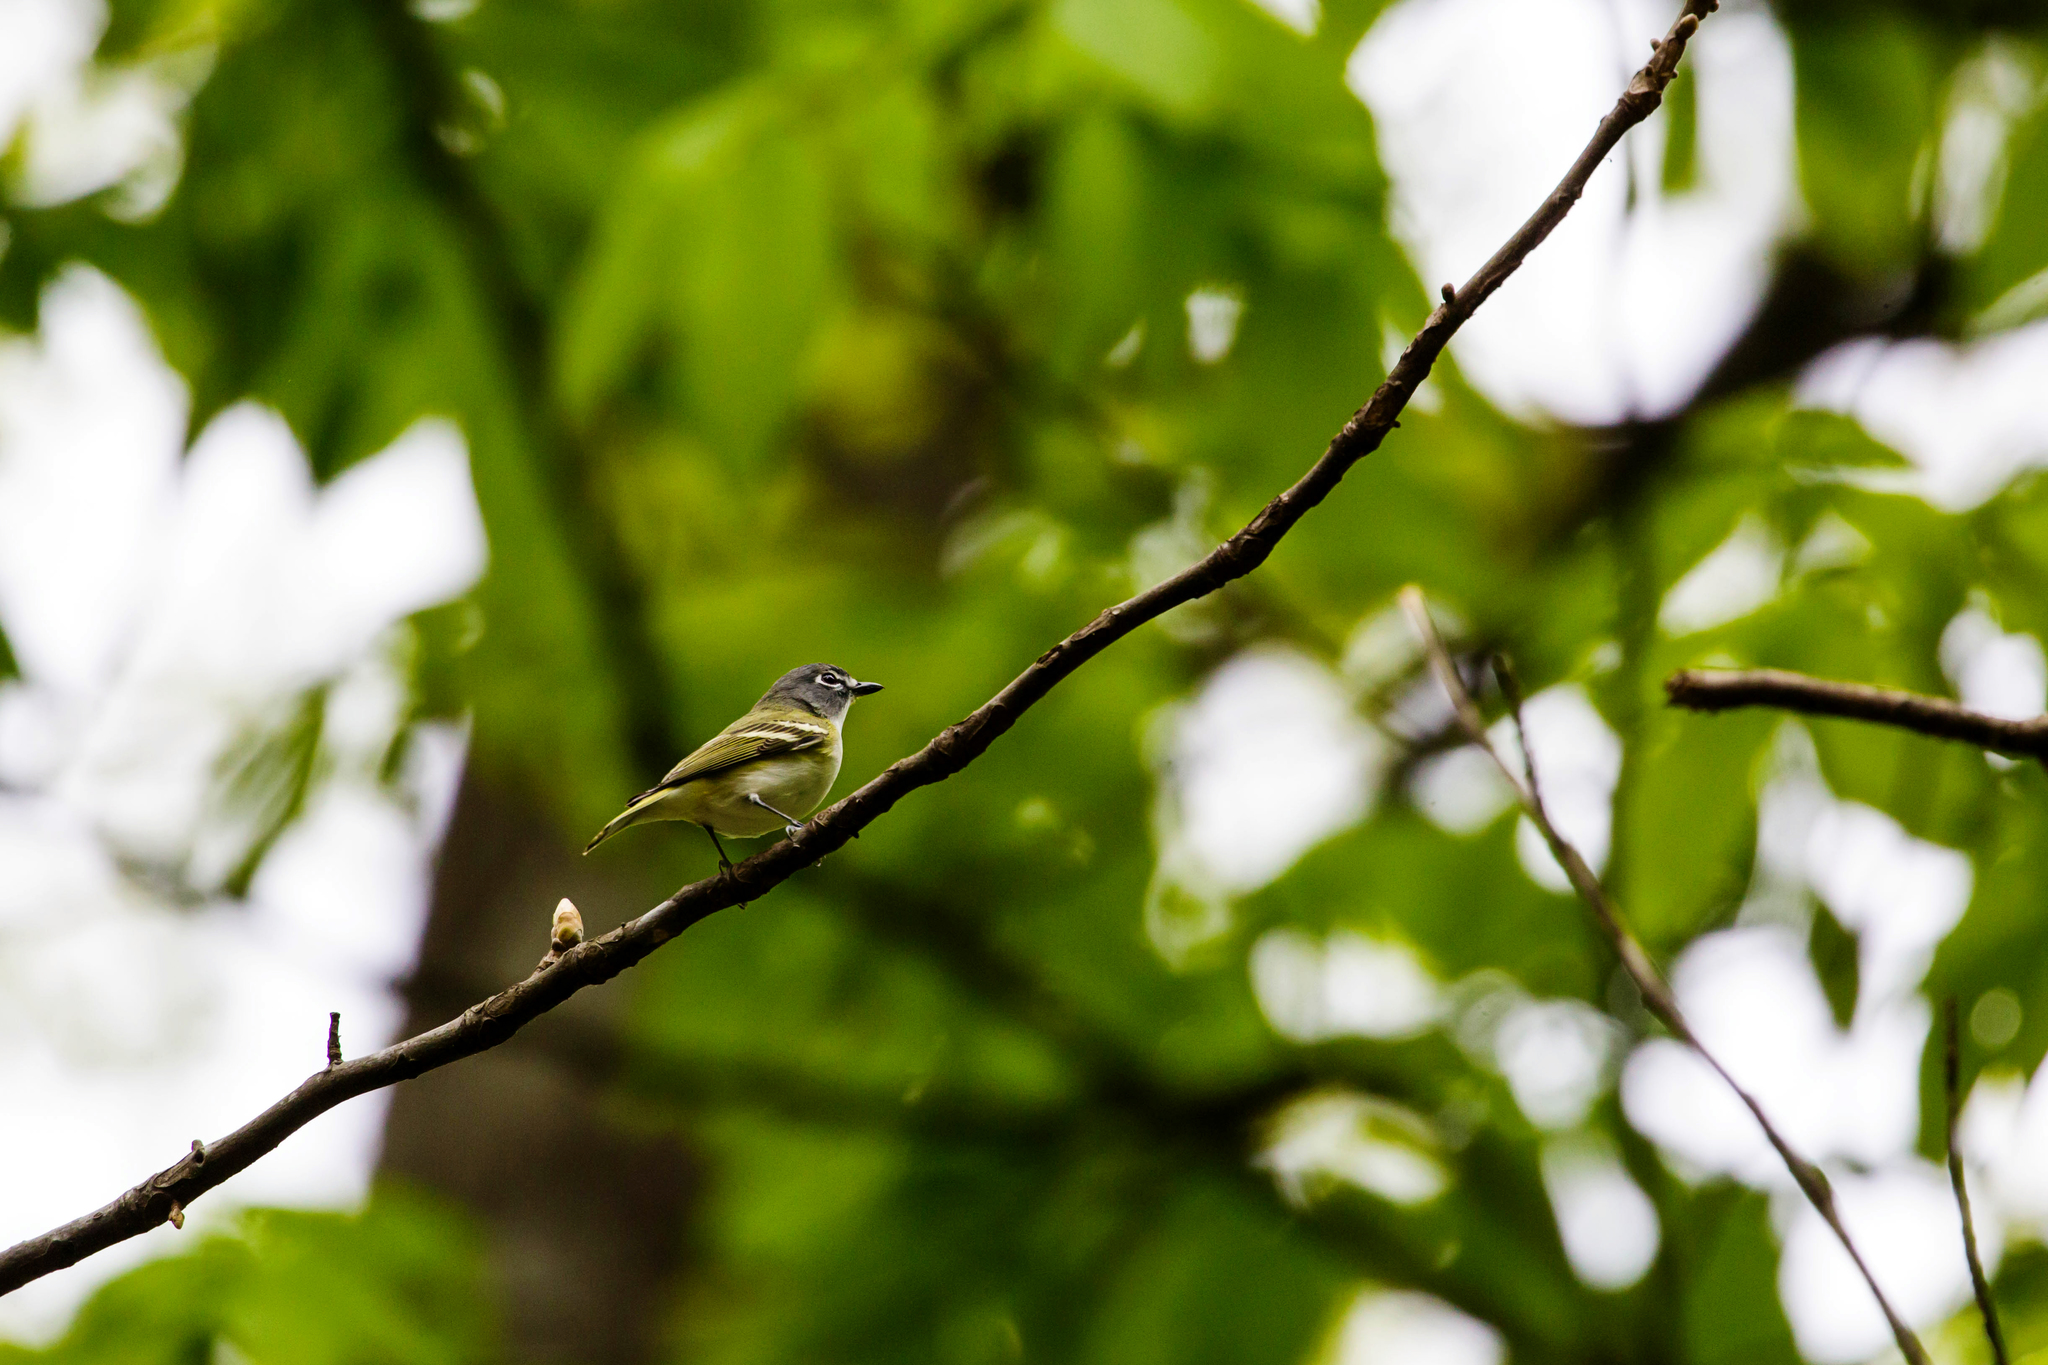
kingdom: Animalia
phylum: Chordata
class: Aves
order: Passeriformes
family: Vireonidae
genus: Vireo
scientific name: Vireo solitarius
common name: Blue-headed vireo
